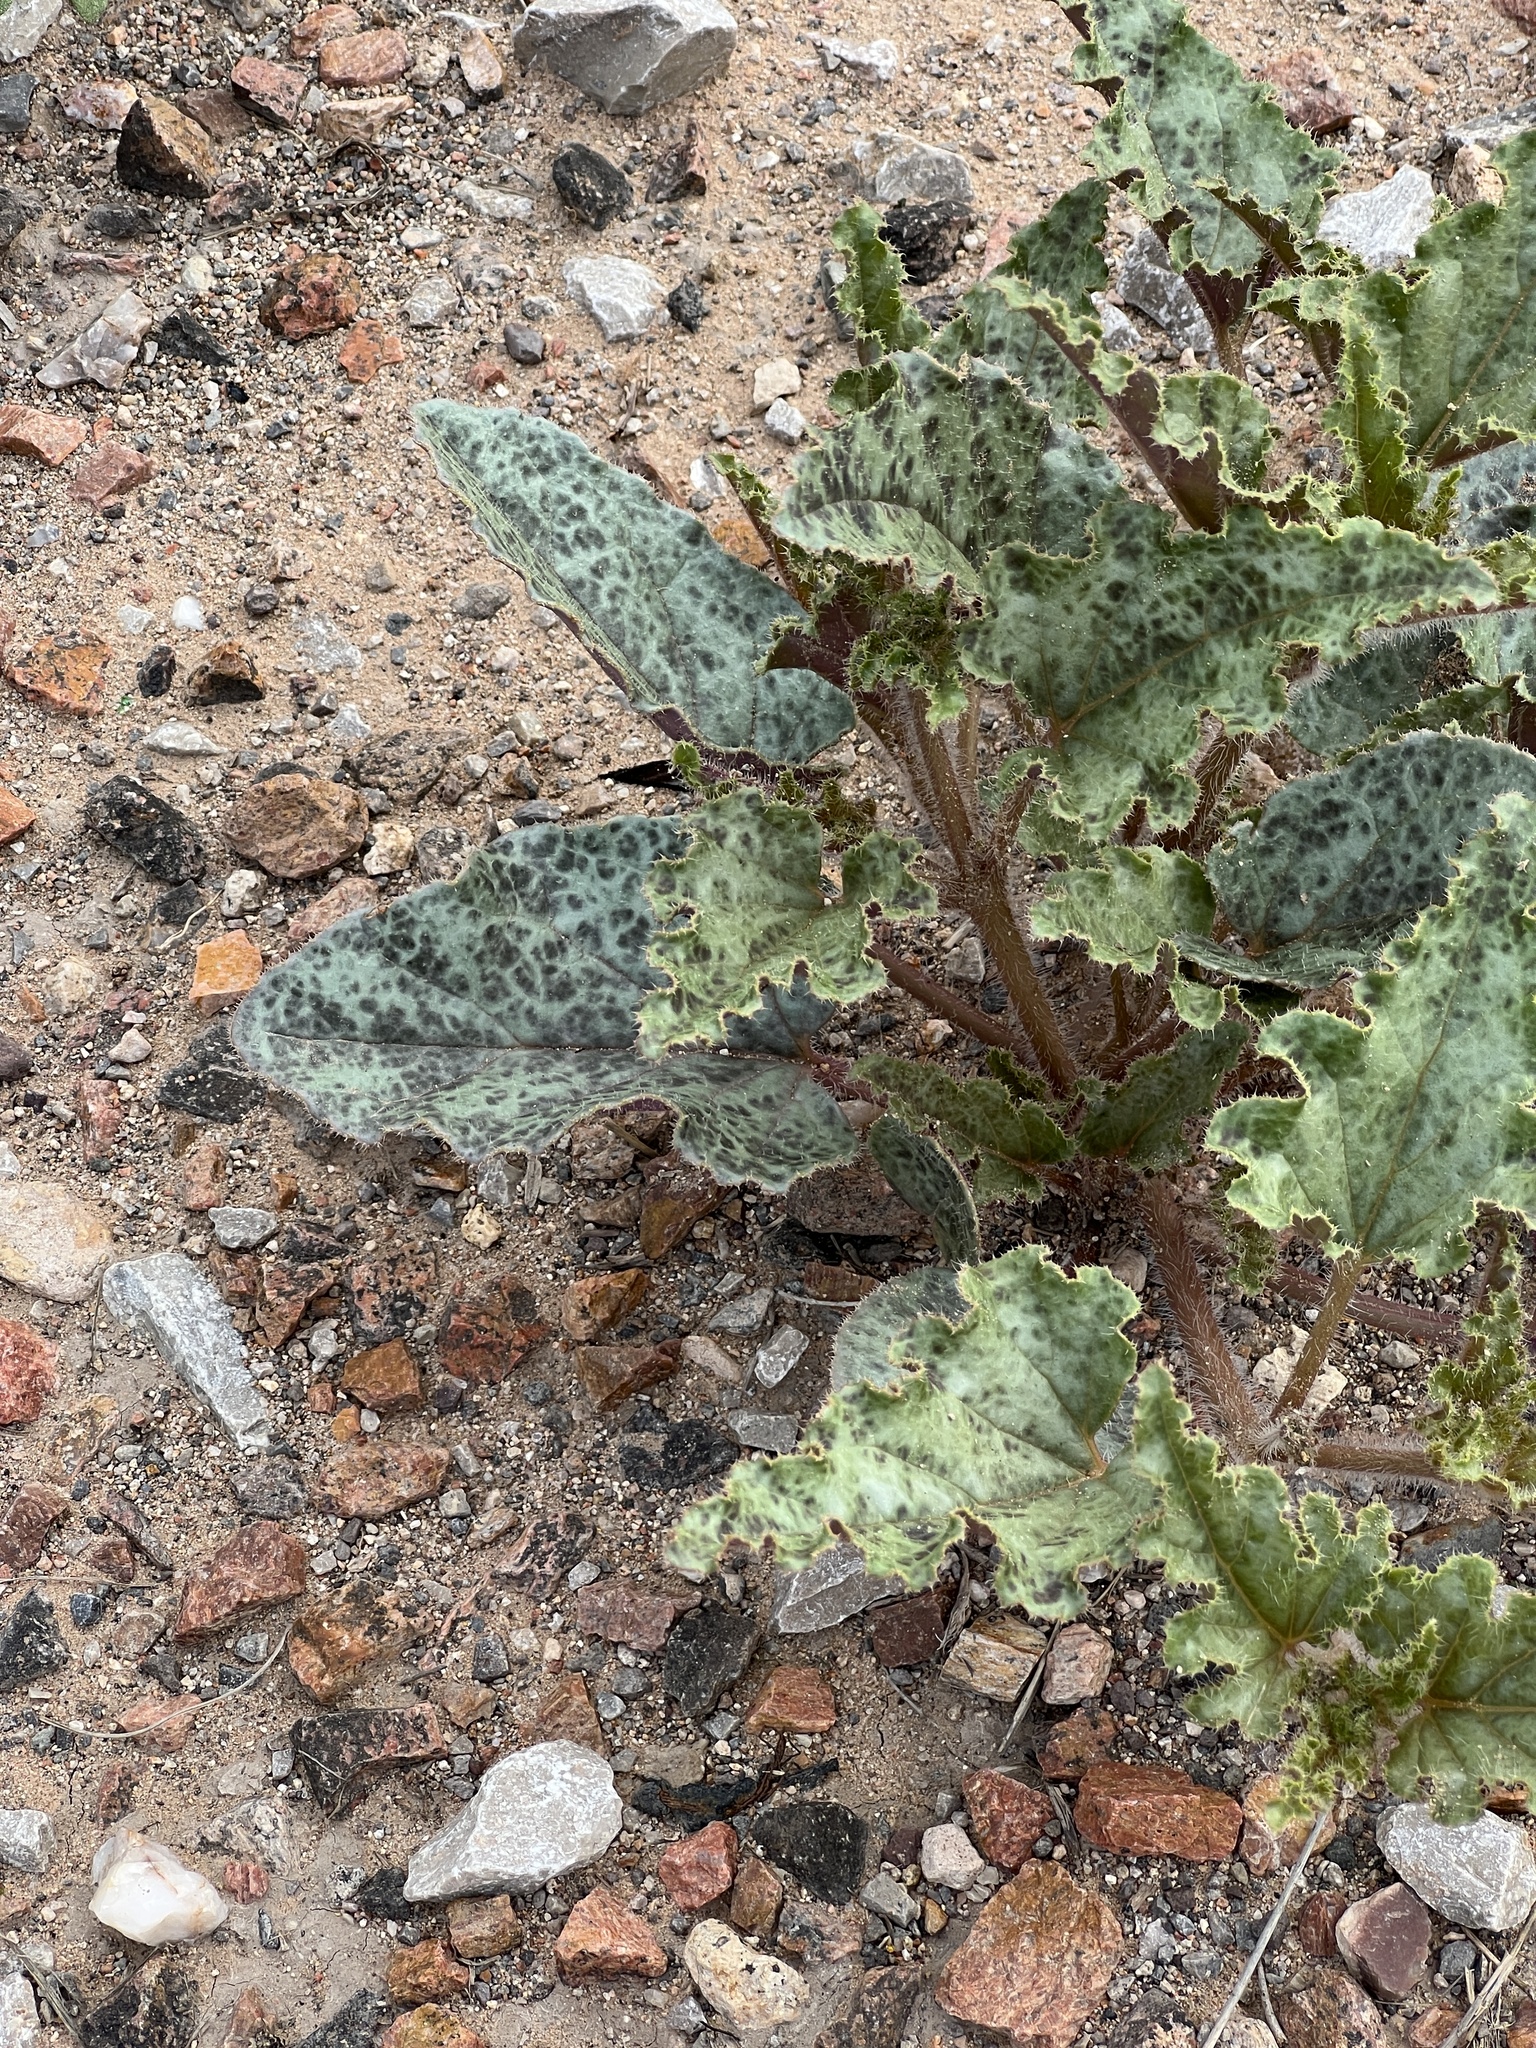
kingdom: Plantae
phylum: Tracheophyta
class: Magnoliopsida
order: Caryophyllales
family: Nyctaginaceae
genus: Nyctaginia
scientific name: Nyctaginia capitata
